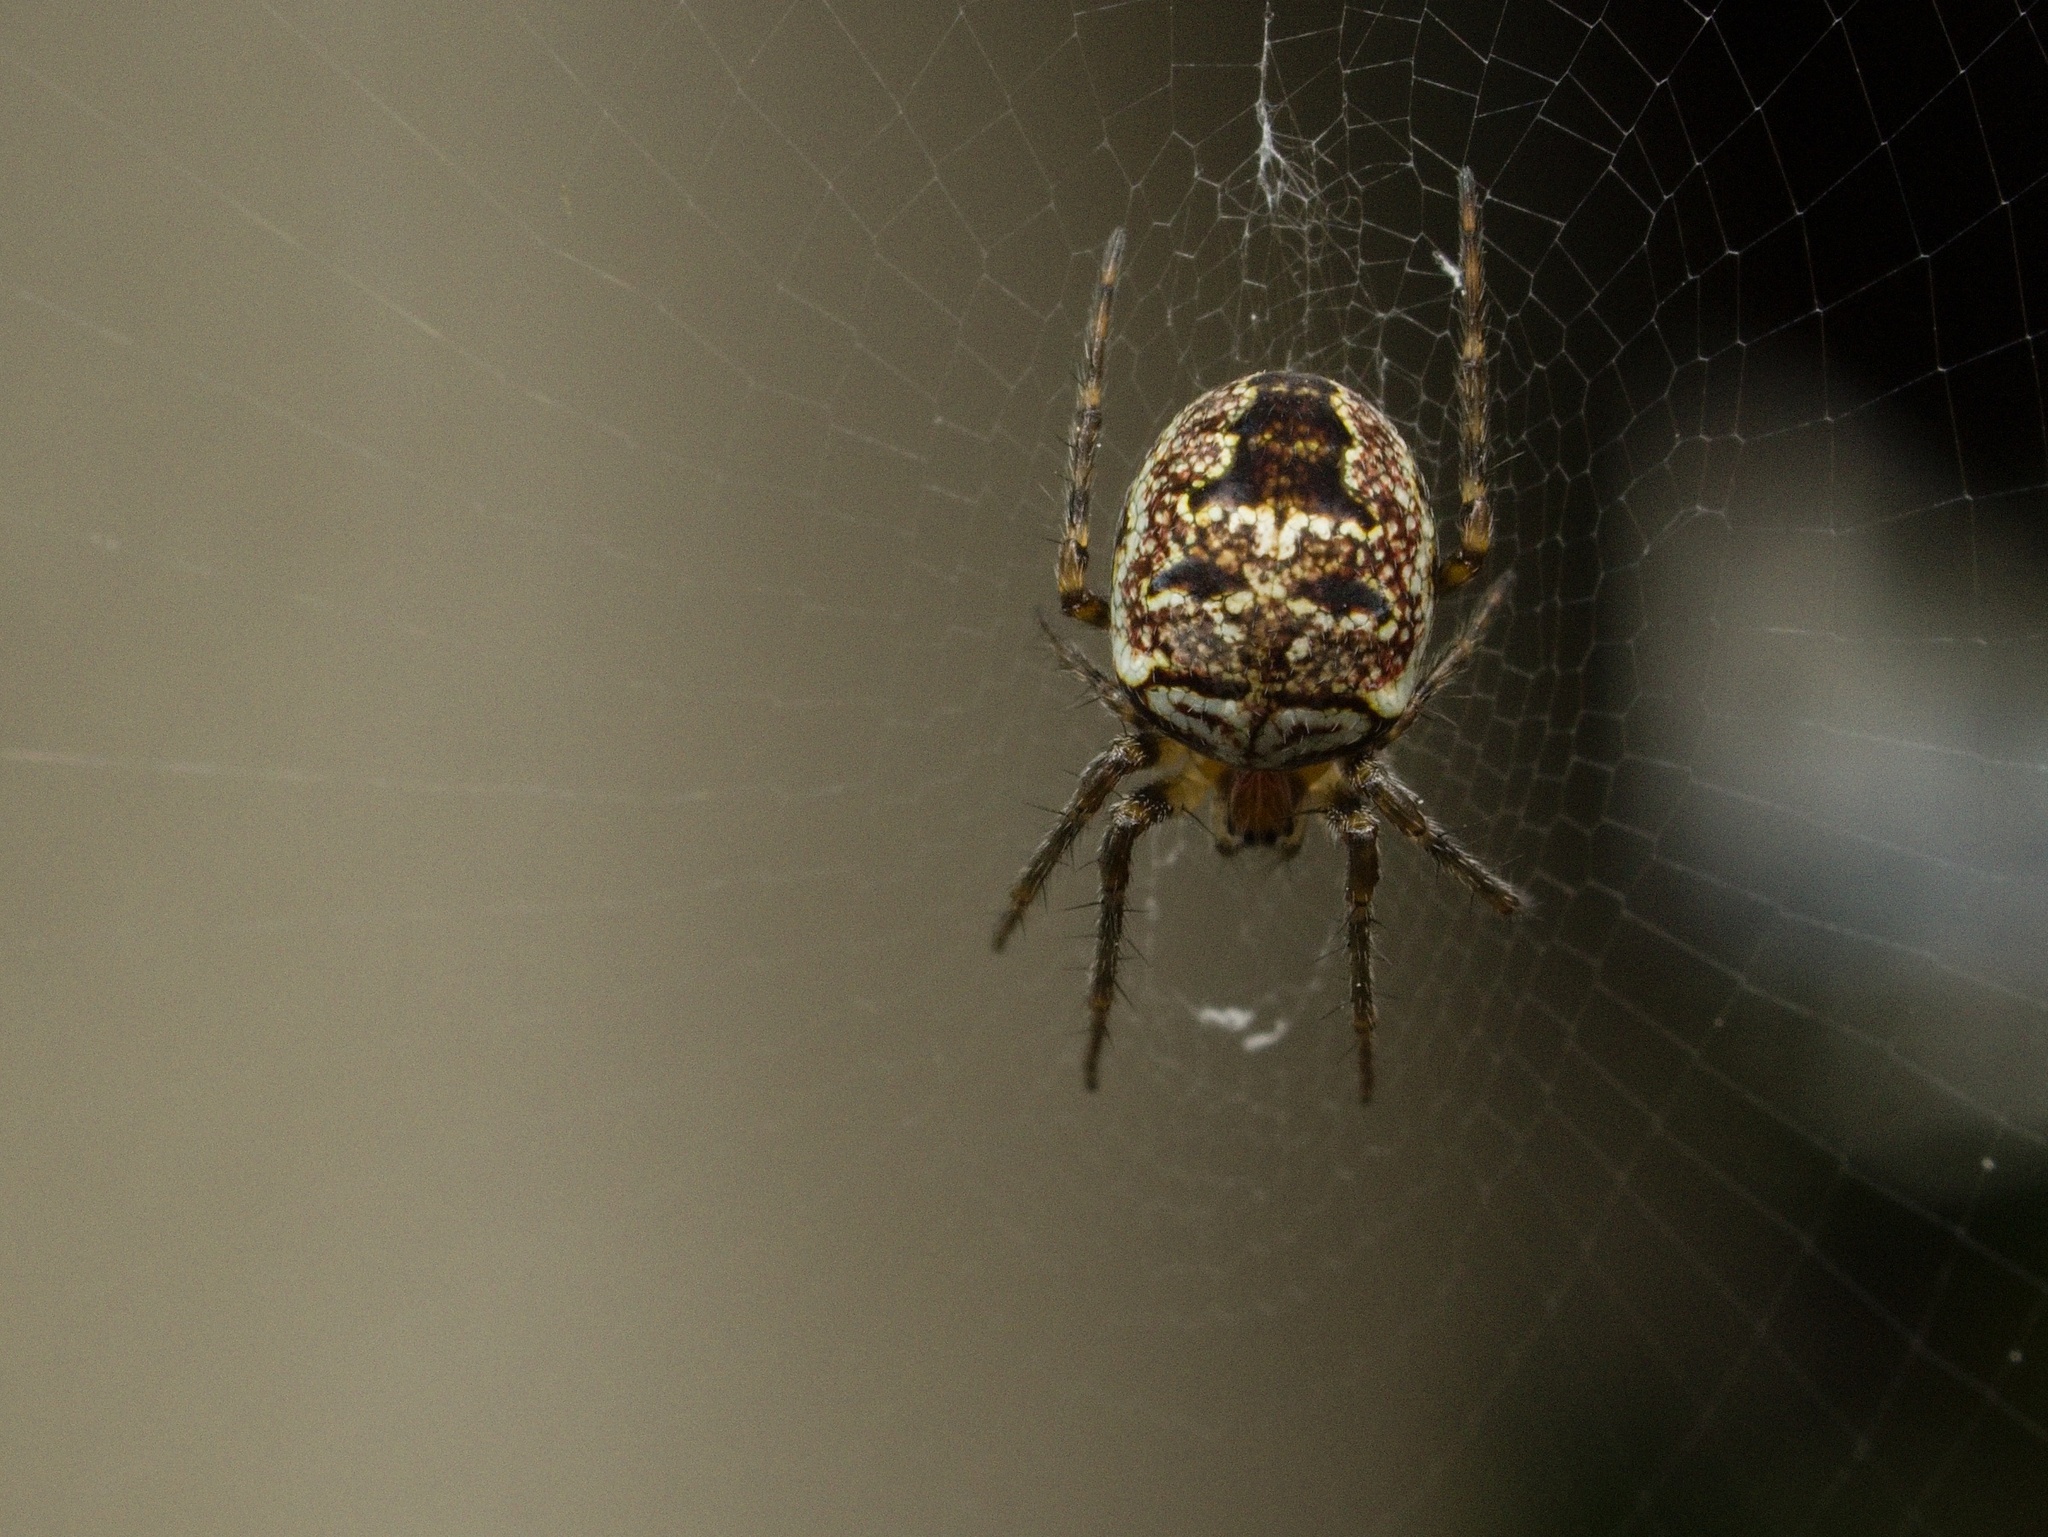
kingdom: Animalia
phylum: Arthropoda
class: Arachnida
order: Araneae
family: Araneidae
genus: Zilla
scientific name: Zilla diodia
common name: Zilla diodia
